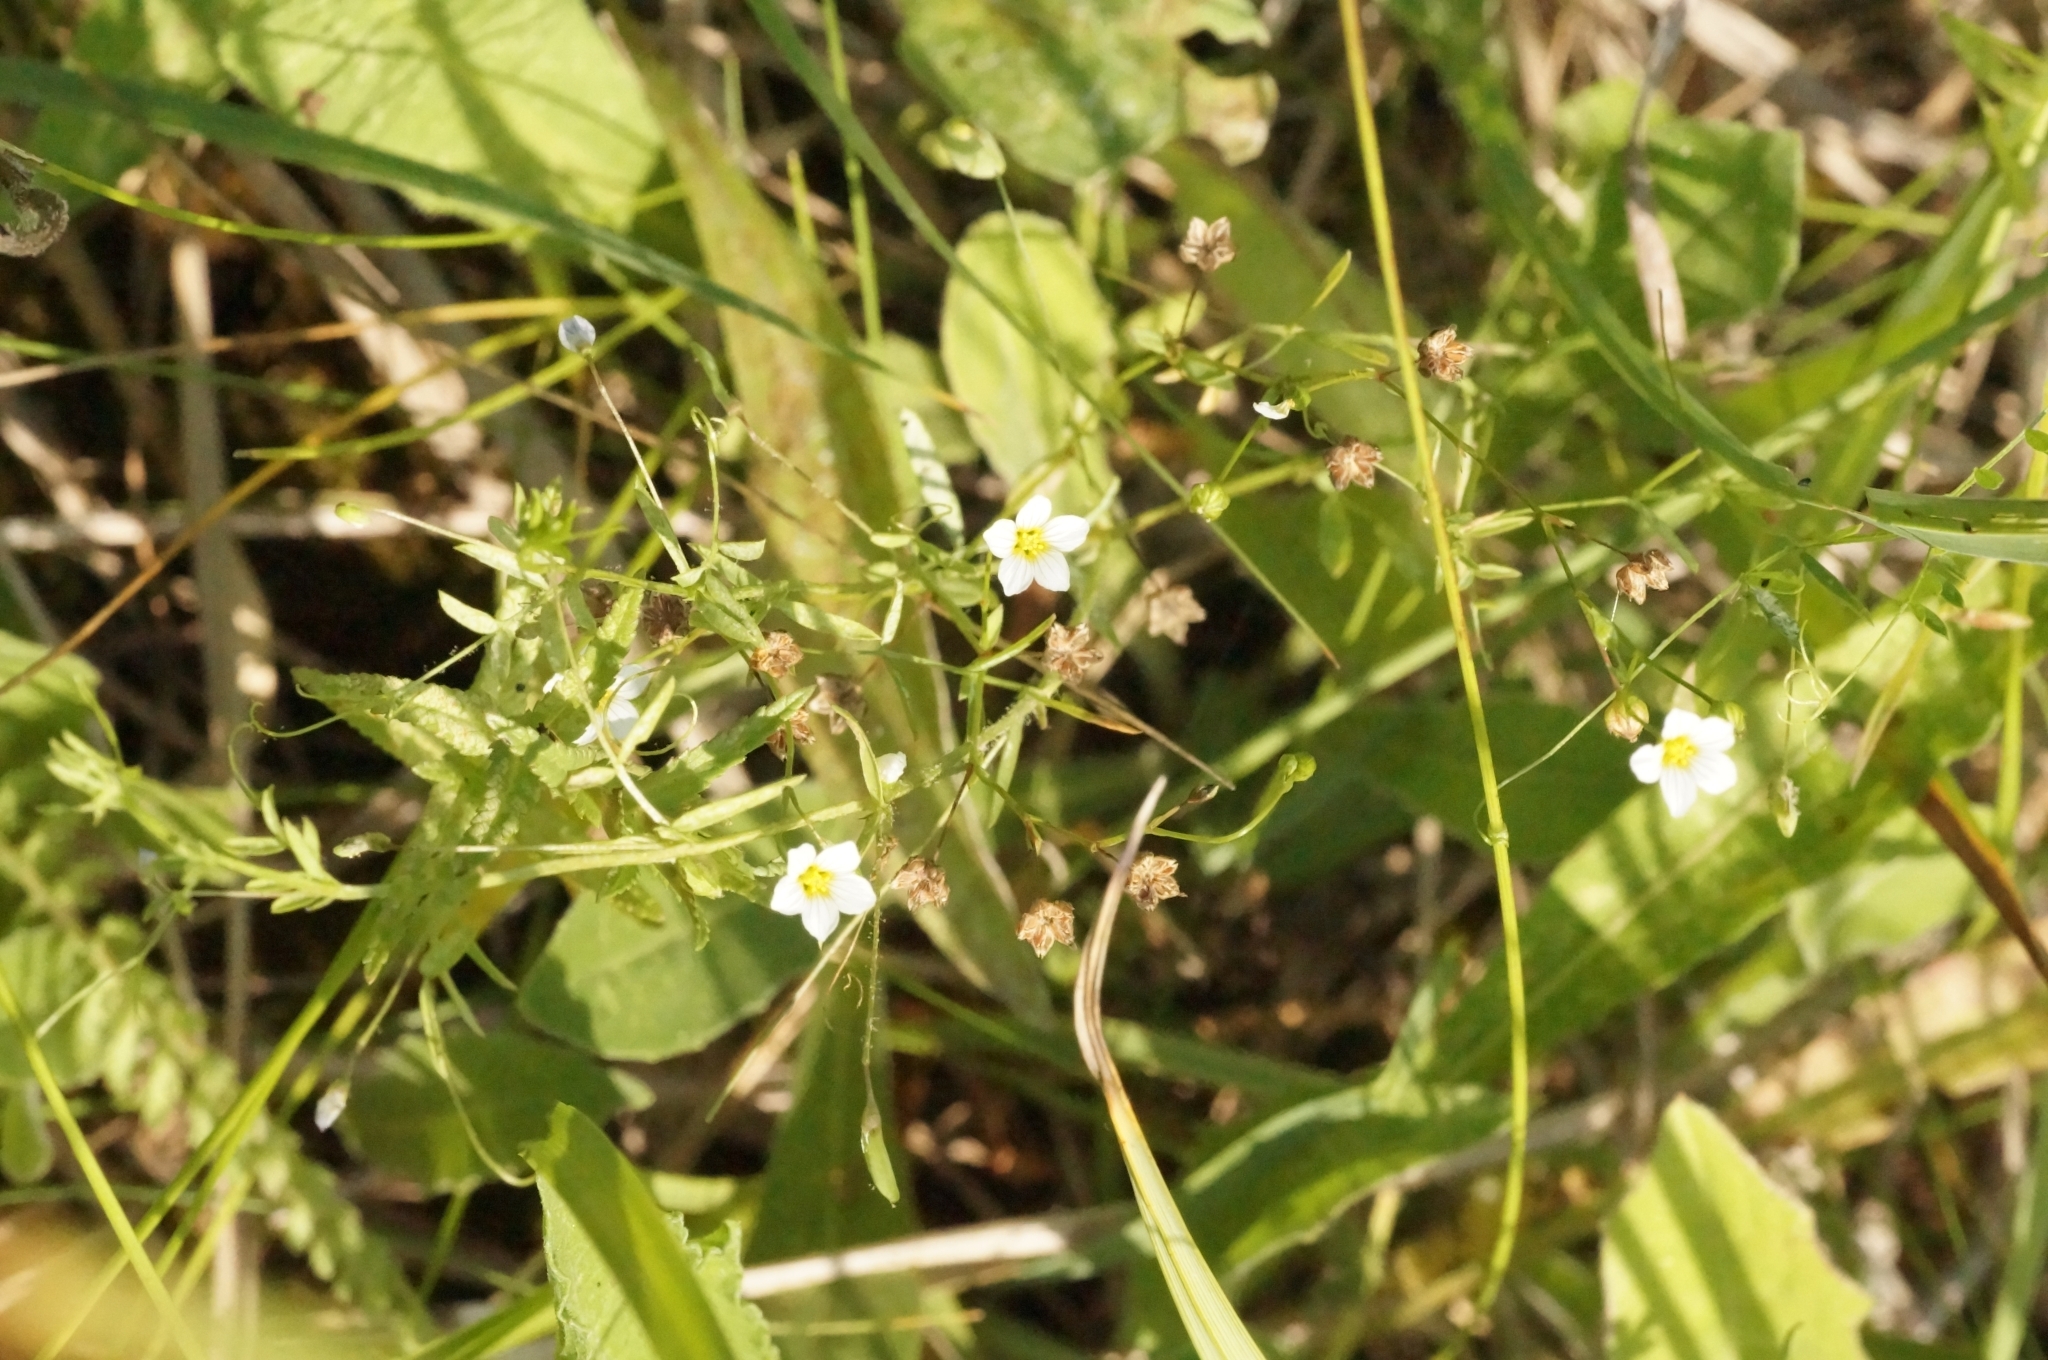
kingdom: Plantae
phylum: Tracheophyta
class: Magnoliopsida
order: Malpighiales
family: Linaceae
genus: Linum
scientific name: Linum catharticum
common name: Fairy flax
